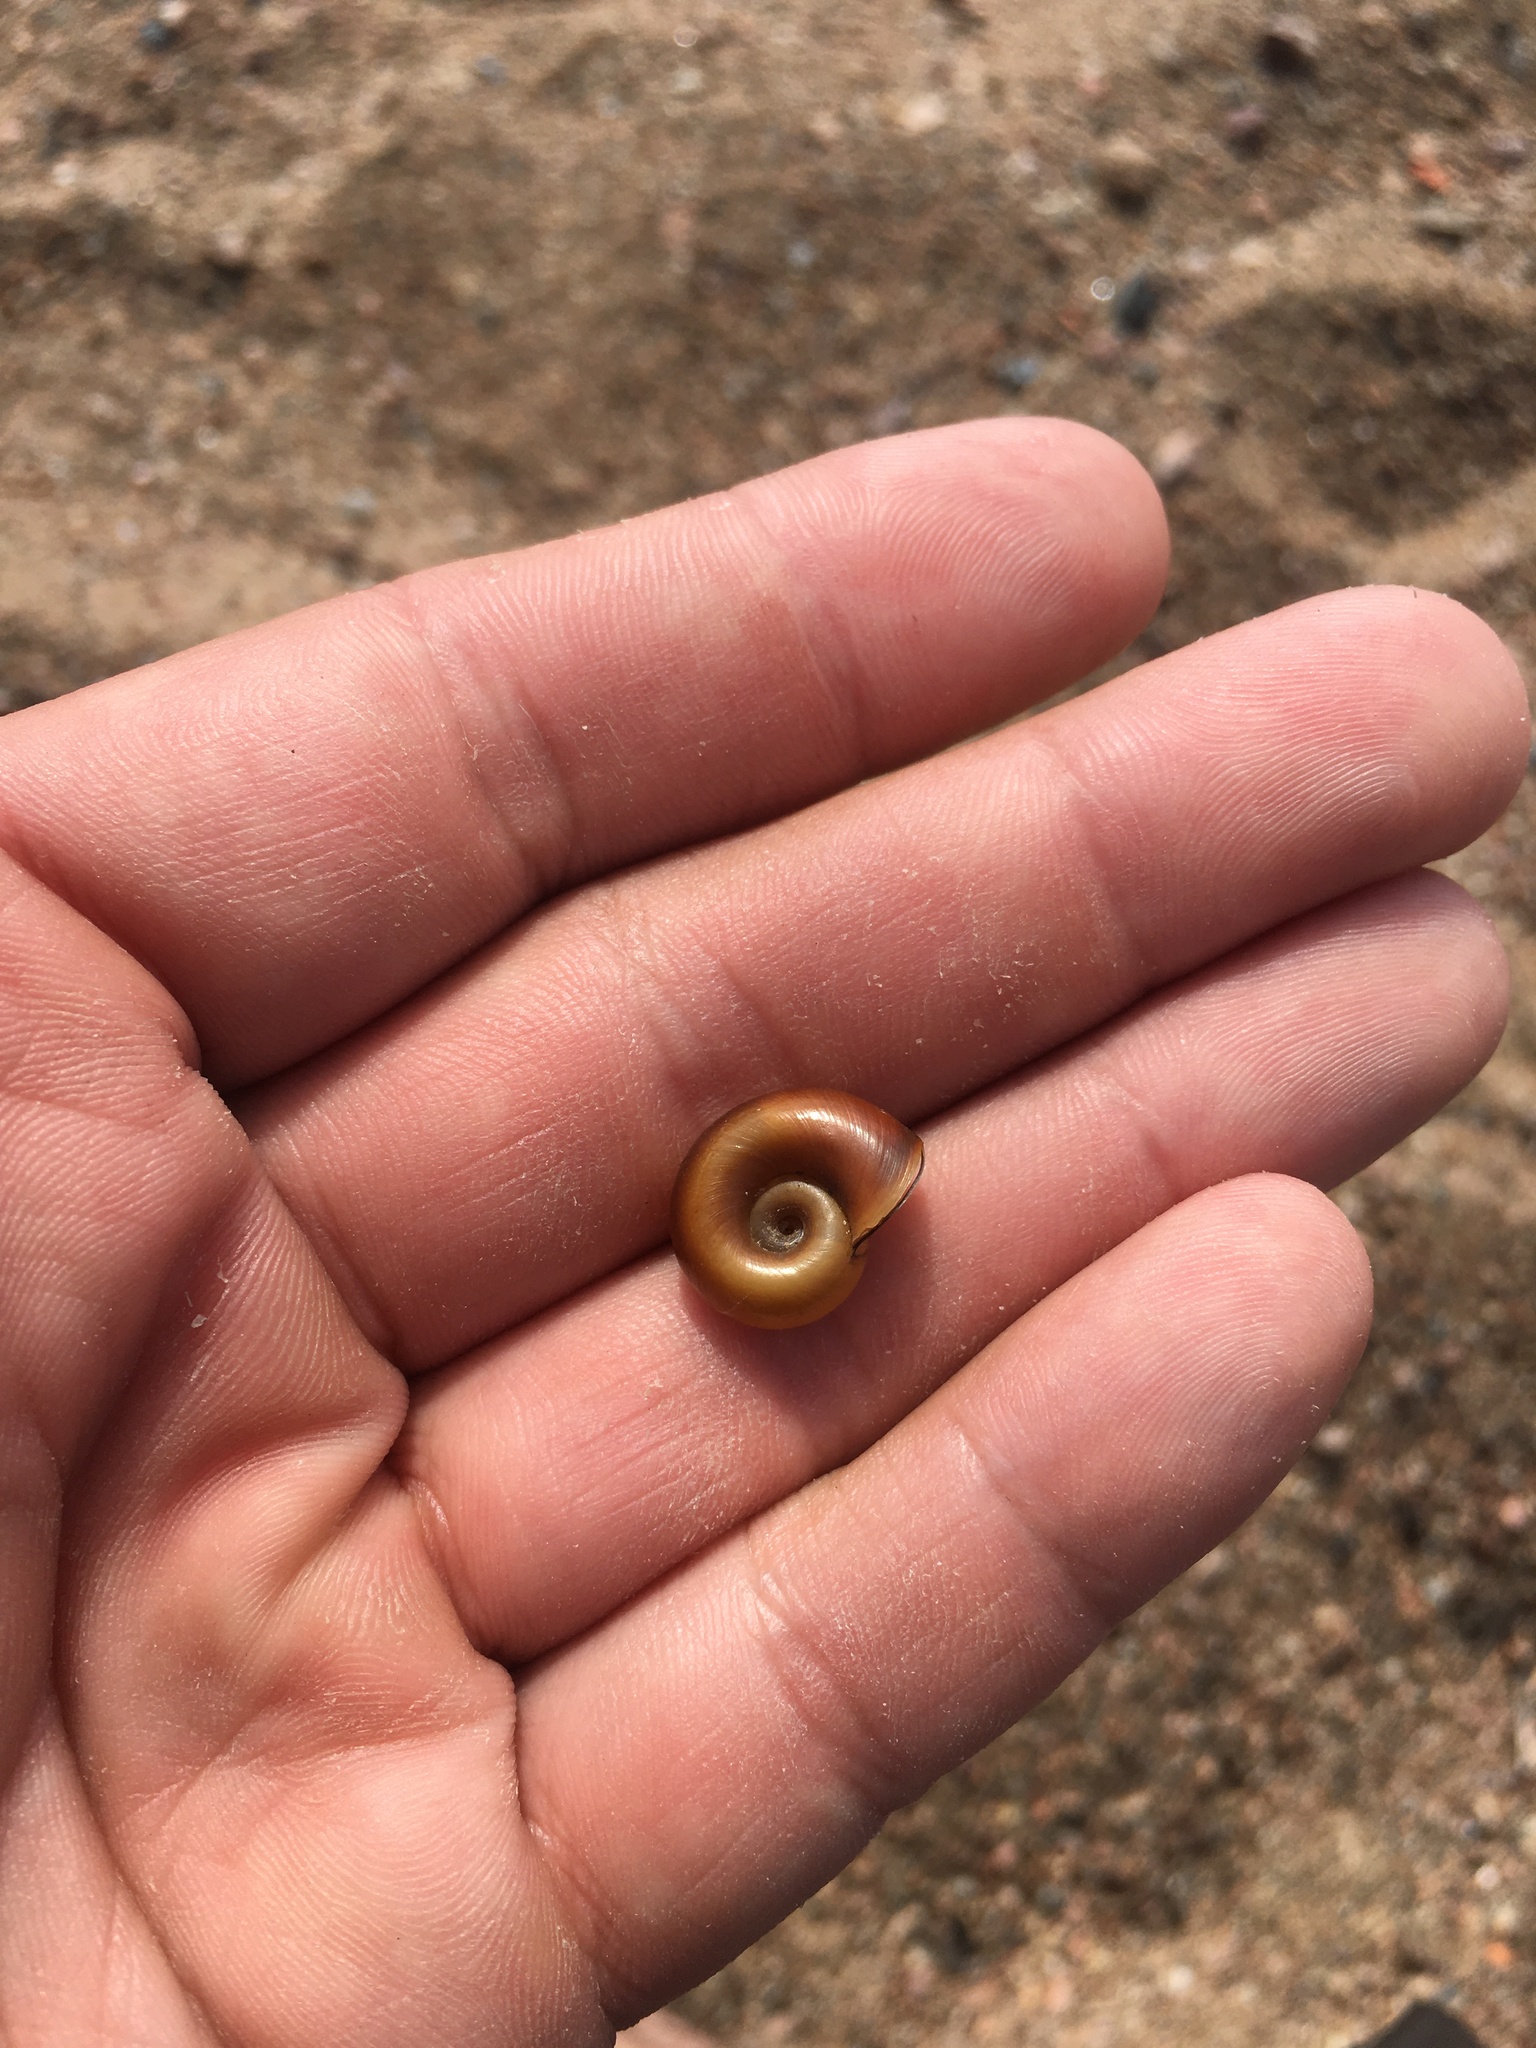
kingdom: Animalia
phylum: Mollusca
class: Gastropoda
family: Planorbidae
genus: Planorbarius
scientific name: Planorbarius corneus
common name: Great ramshorn
